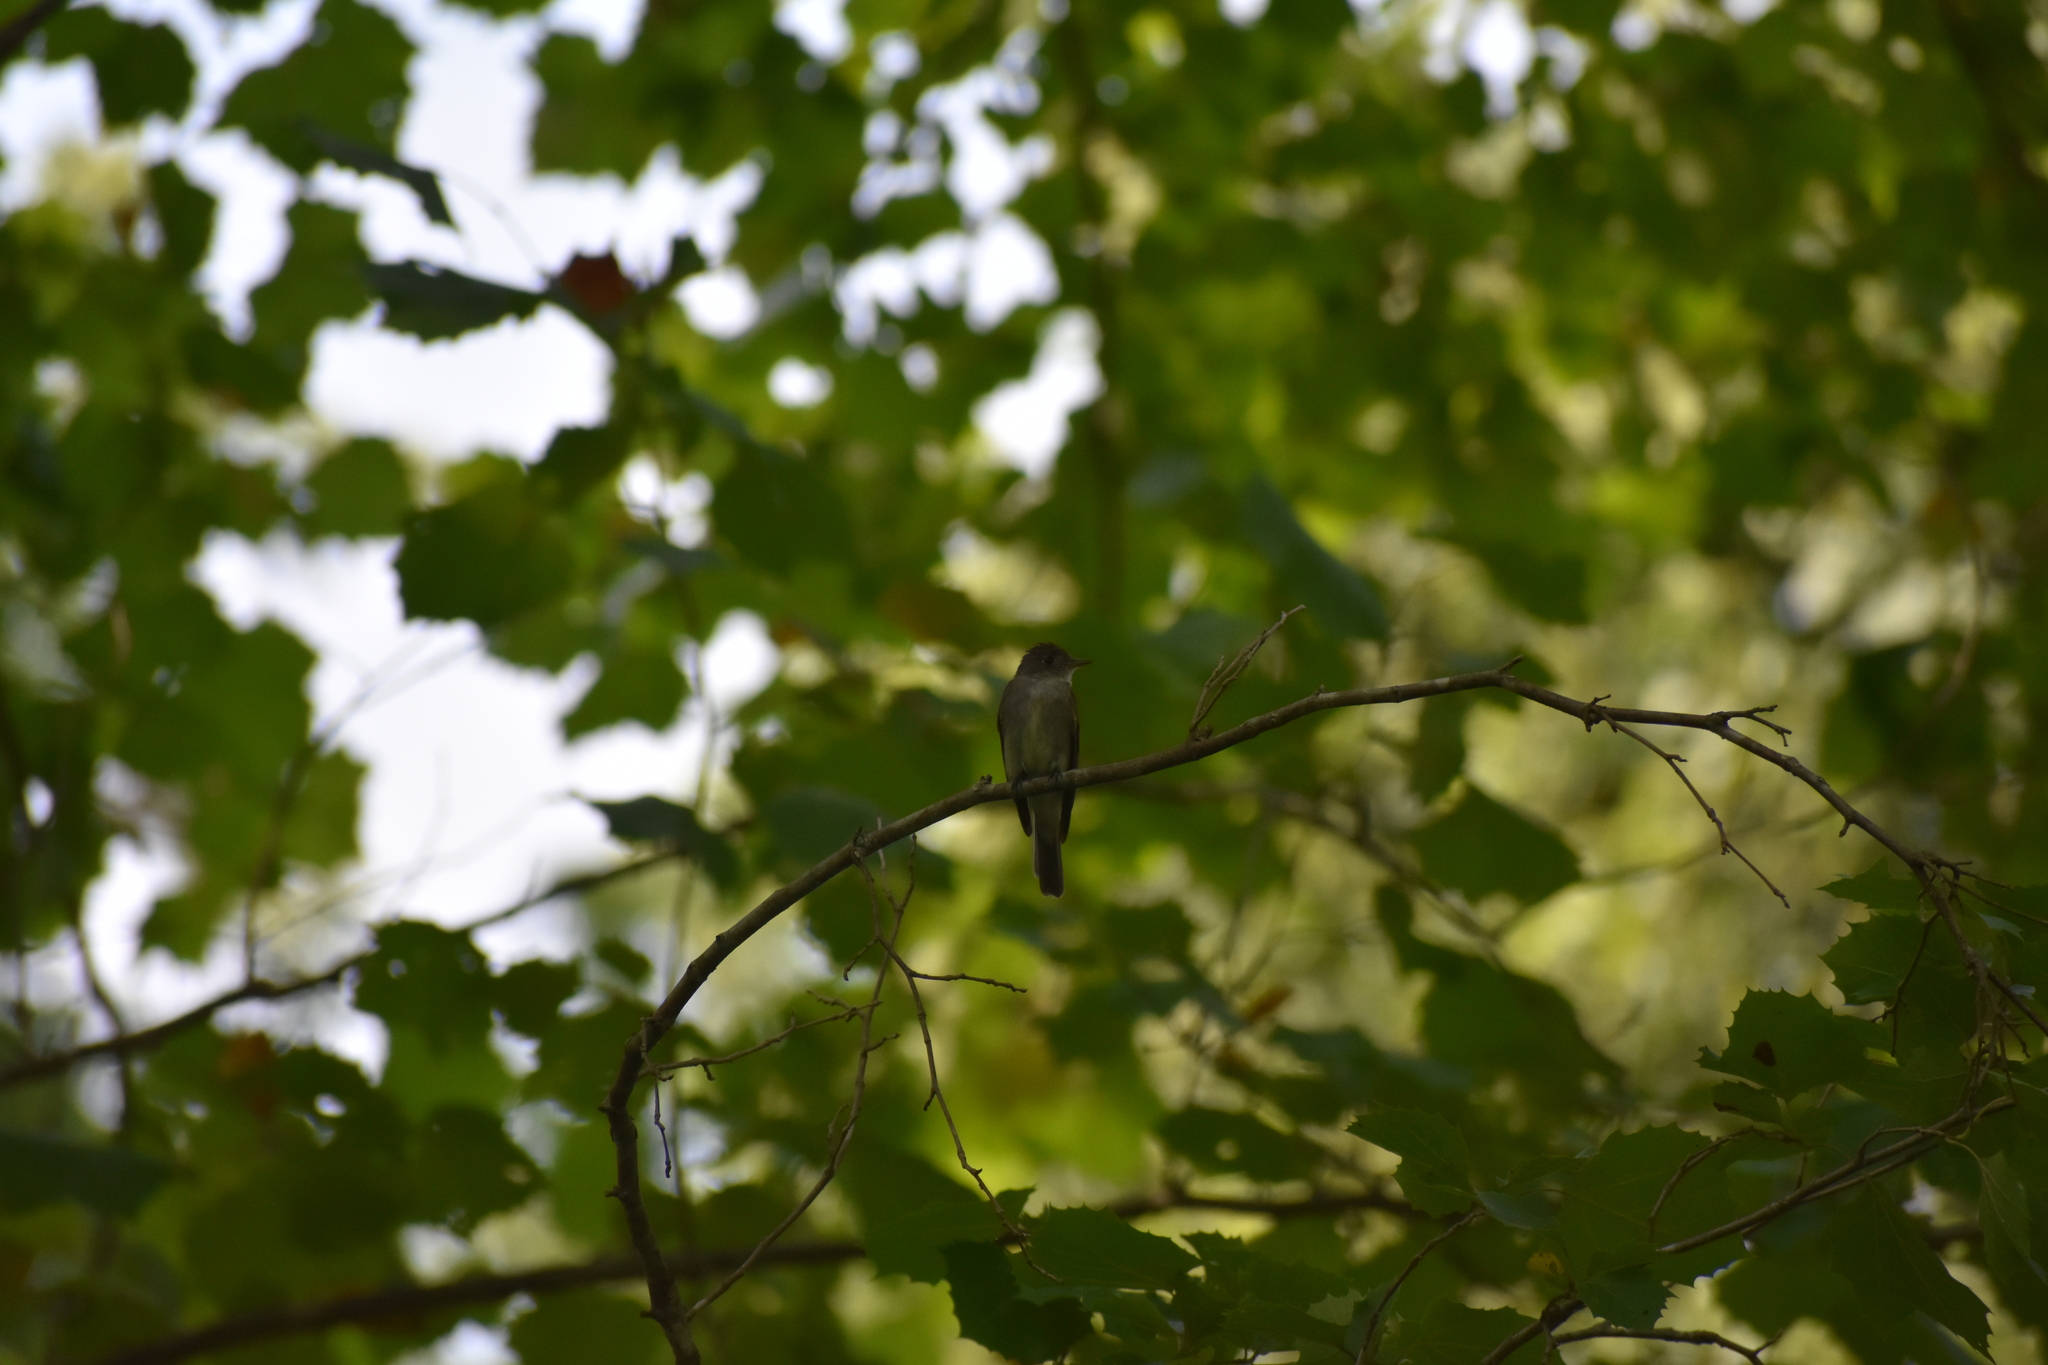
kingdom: Animalia
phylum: Chordata
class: Aves
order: Passeriformes
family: Tyrannidae
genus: Contopus
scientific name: Contopus virens
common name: Eastern wood-pewee
